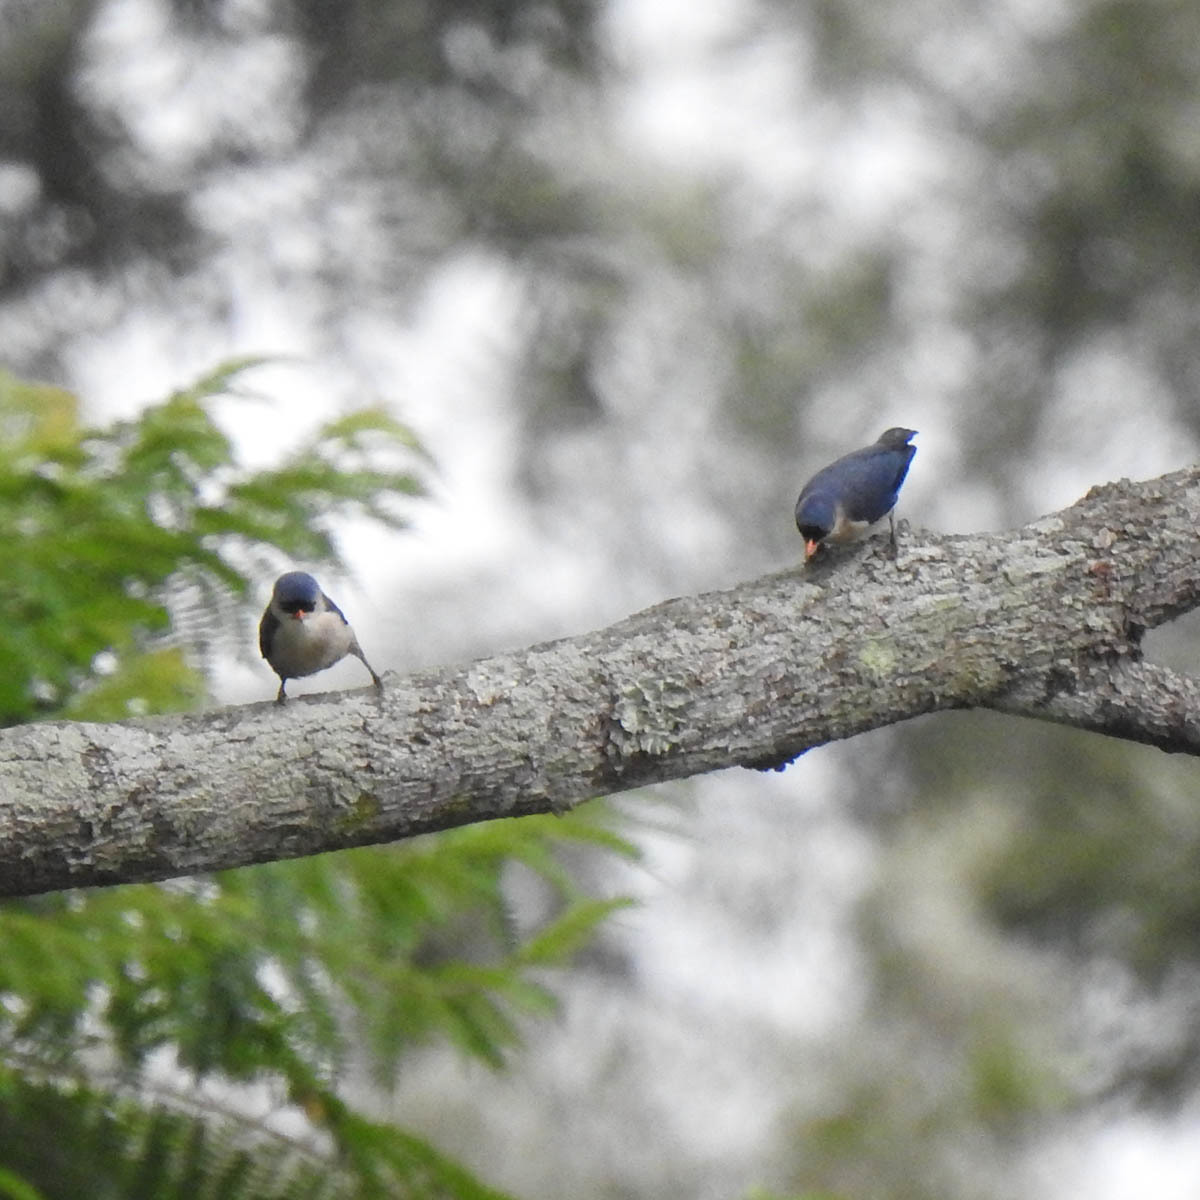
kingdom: Animalia
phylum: Chordata
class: Aves
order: Passeriformes
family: Sittidae
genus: Sitta
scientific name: Sitta frontalis
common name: Velvet-fronted nuthatch
